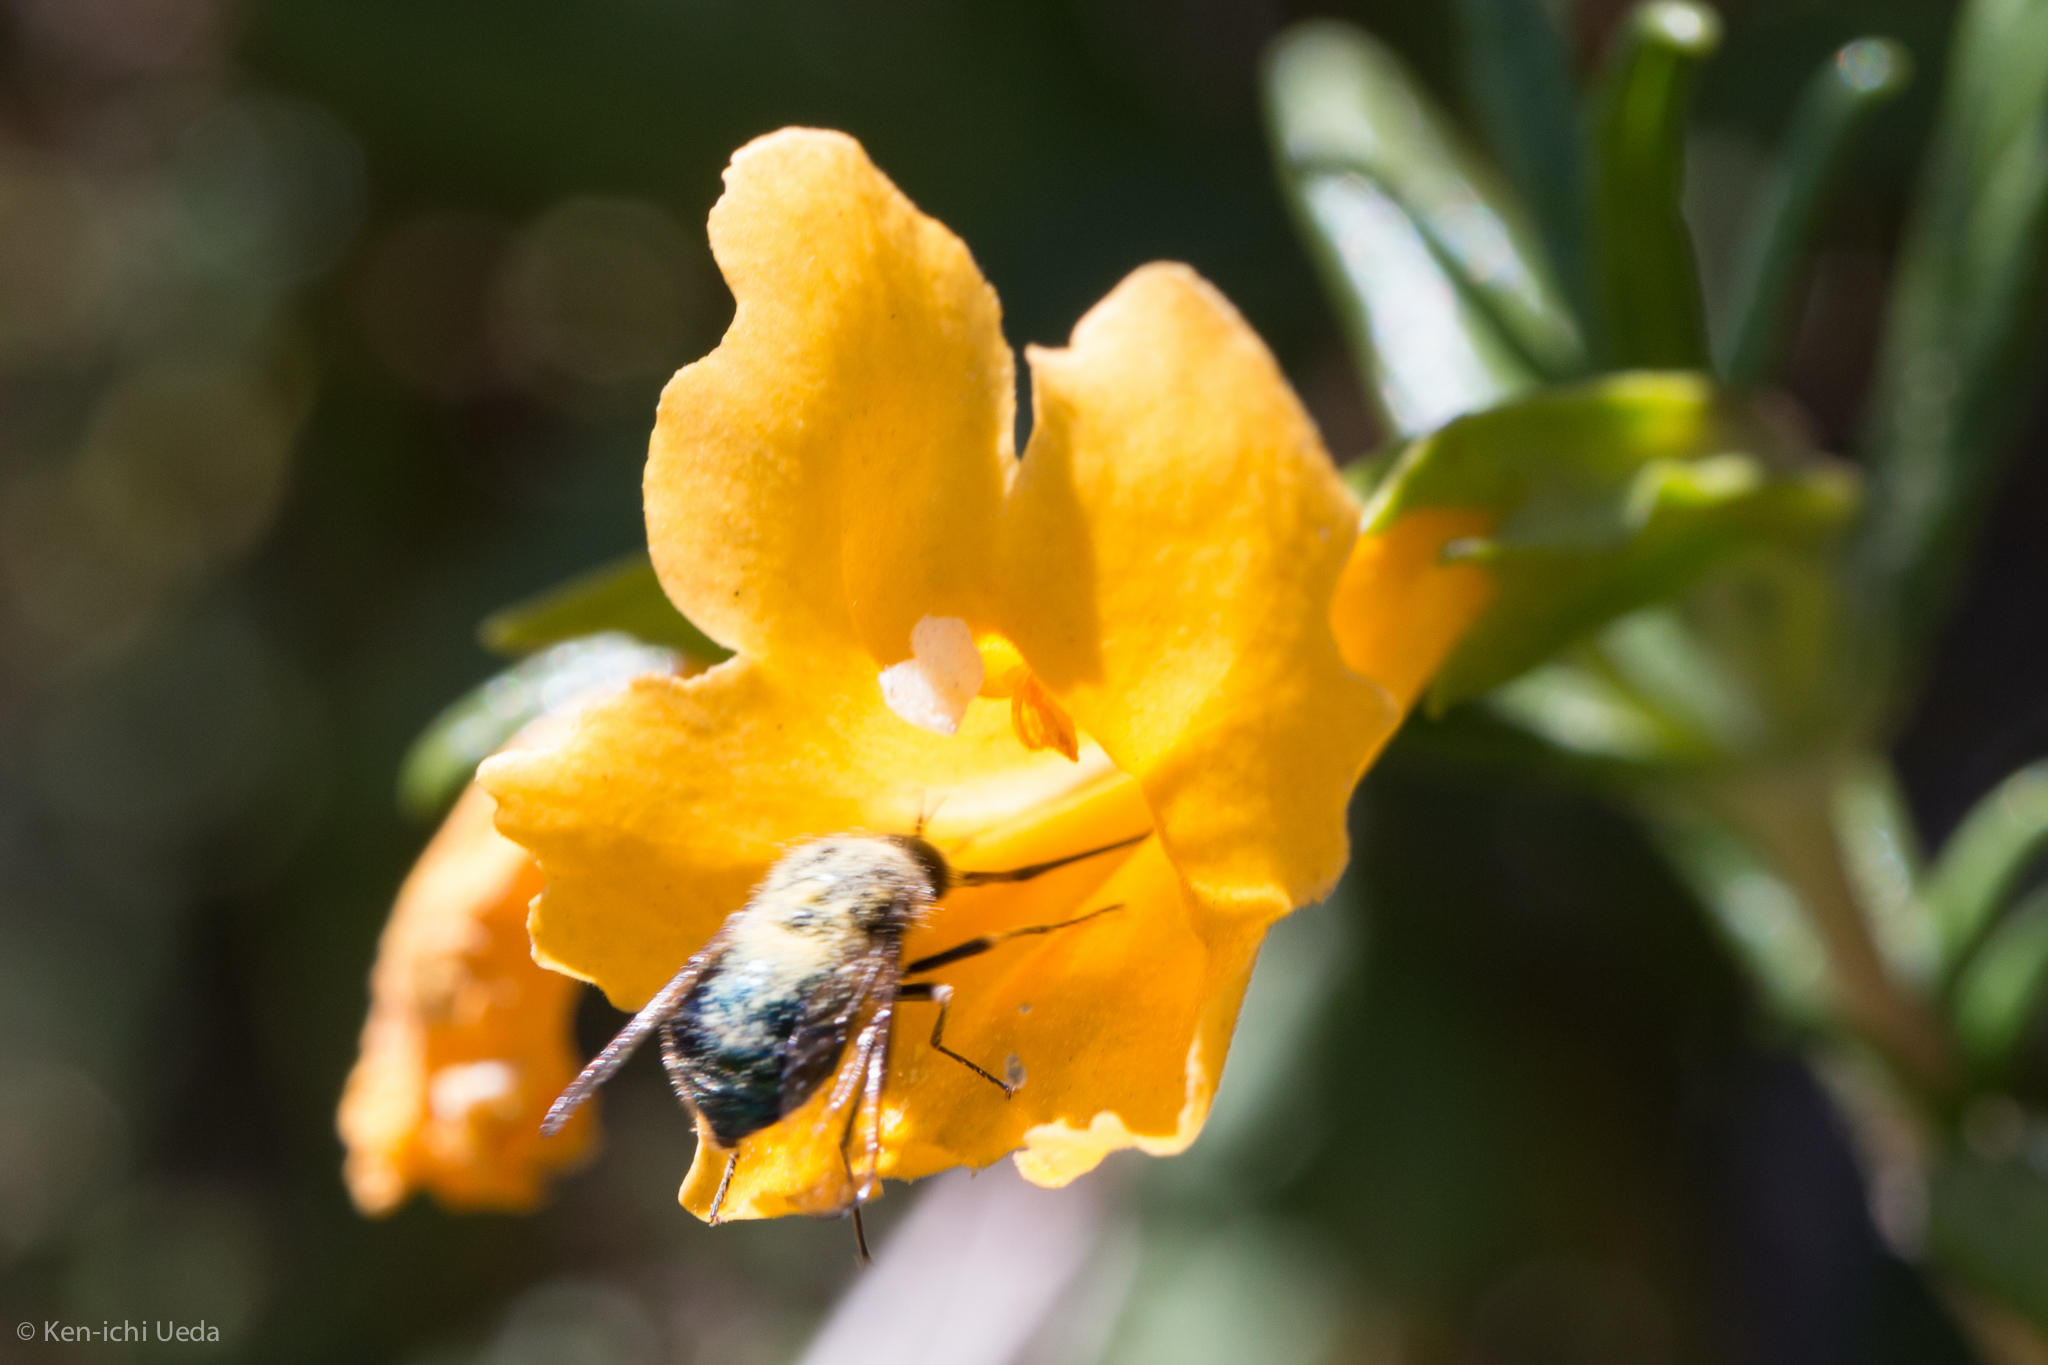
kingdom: Animalia
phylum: Arthropoda
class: Insecta
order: Diptera
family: Acroceridae
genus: Eulonchus
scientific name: Eulonchus tristis
